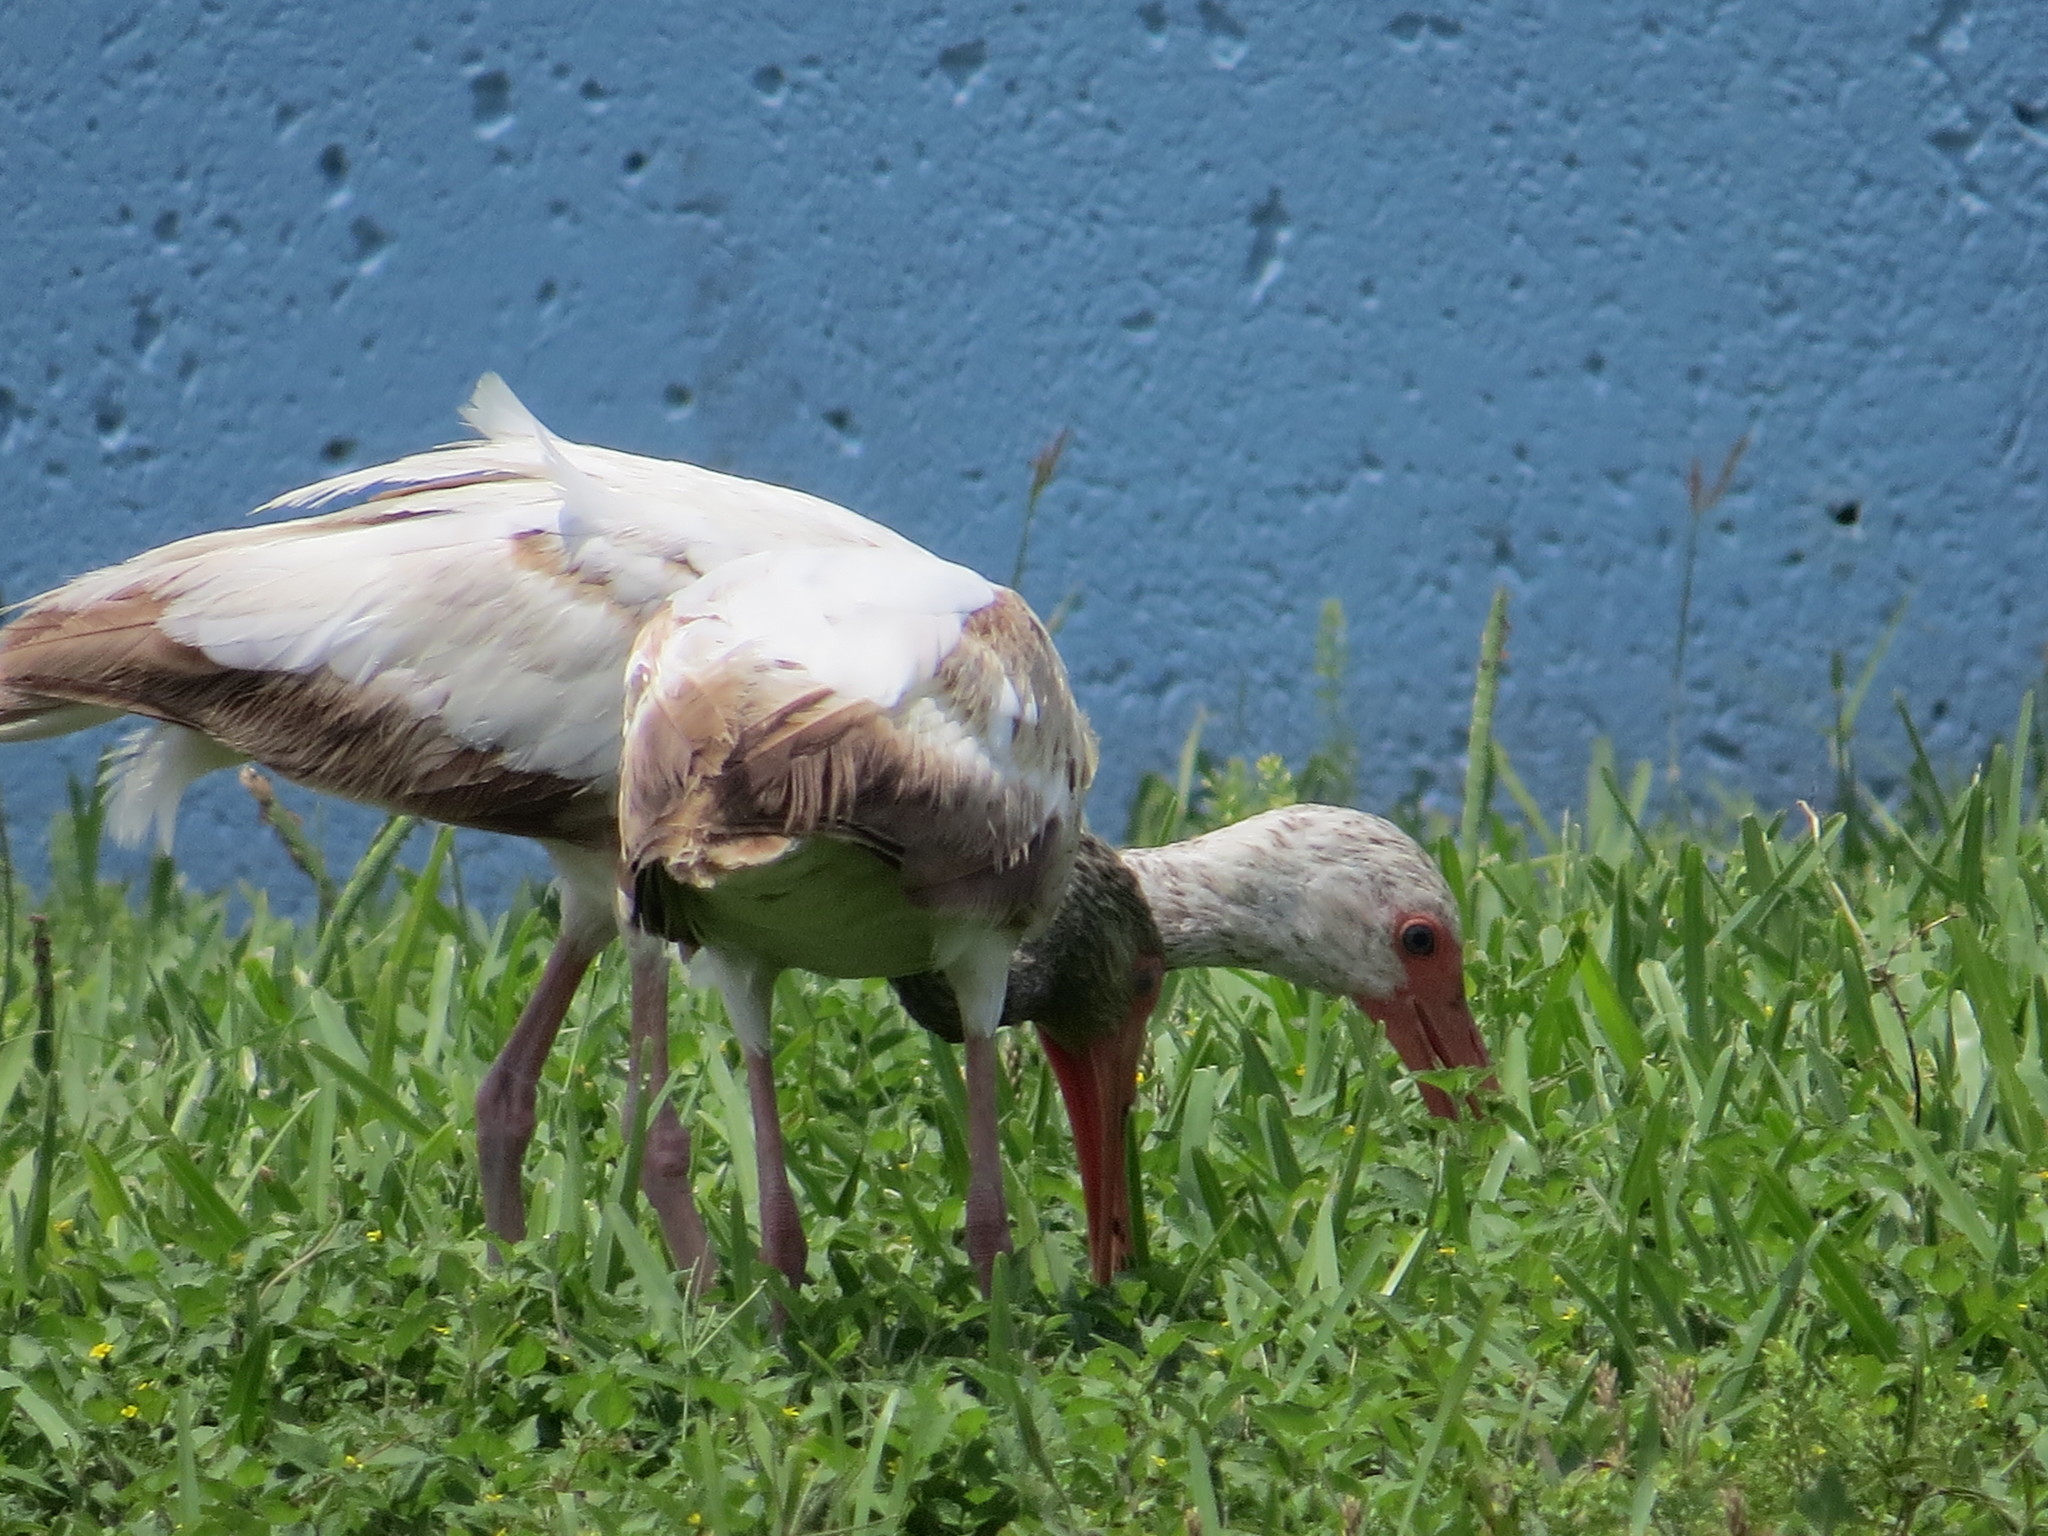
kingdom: Animalia
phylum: Chordata
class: Aves
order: Pelecaniformes
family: Threskiornithidae
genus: Eudocimus
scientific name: Eudocimus albus
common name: White ibis
